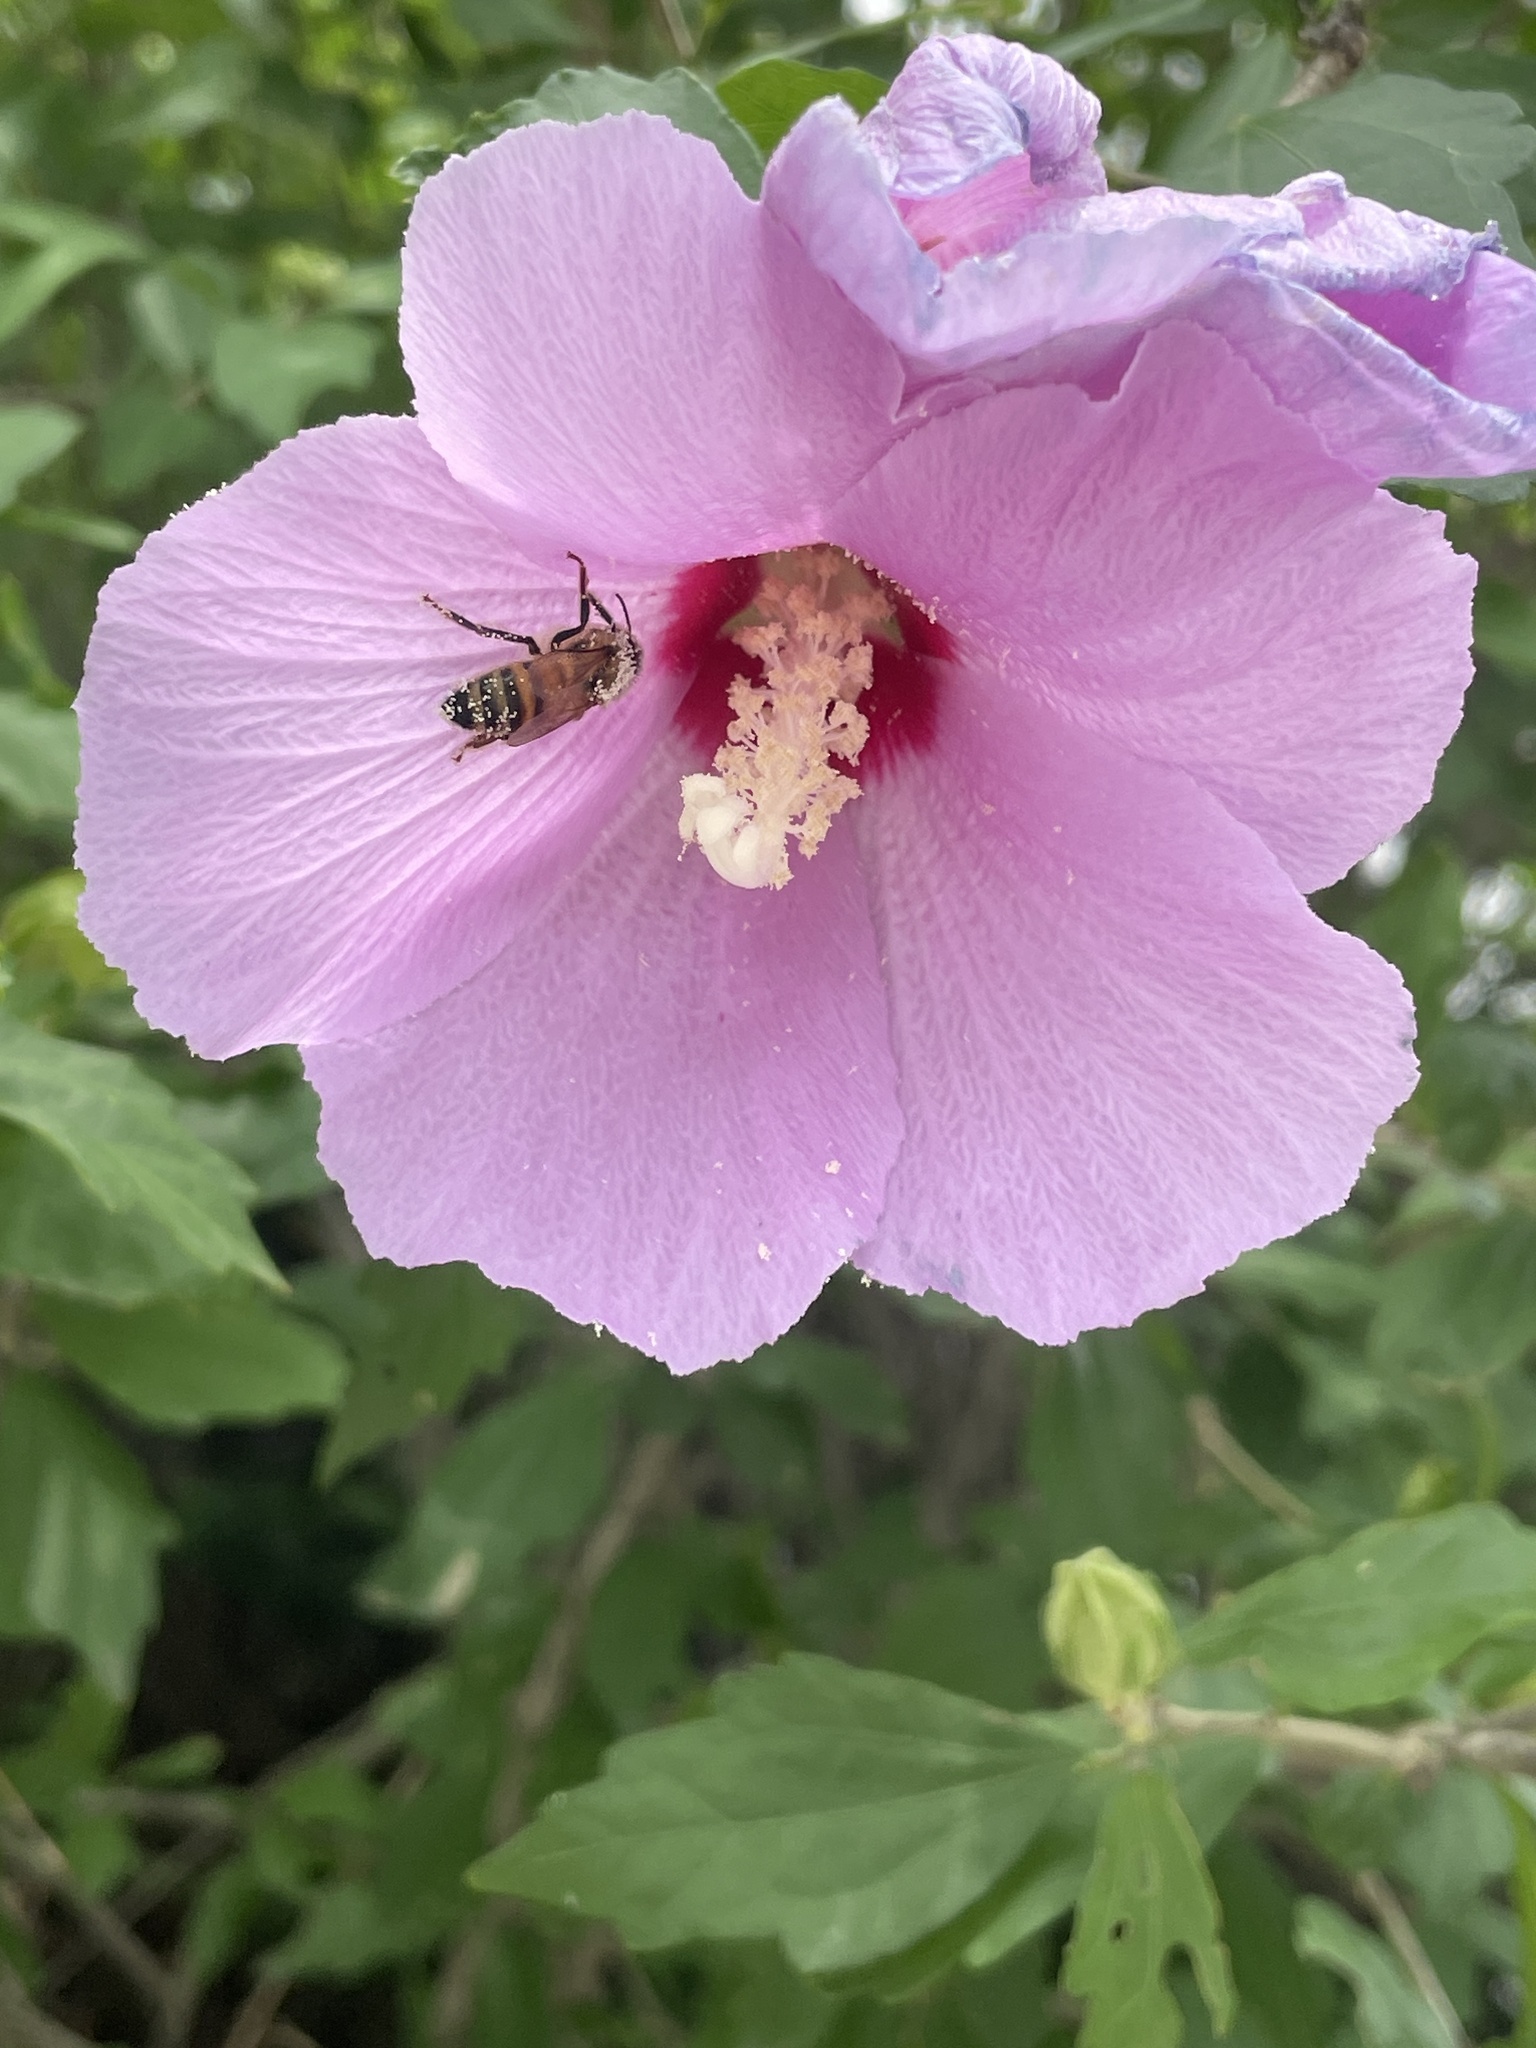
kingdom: Animalia
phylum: Arthropoda
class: Insecta
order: Hymenoptera
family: Apidae
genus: Apis
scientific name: Apis mellifera
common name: Honey bee
